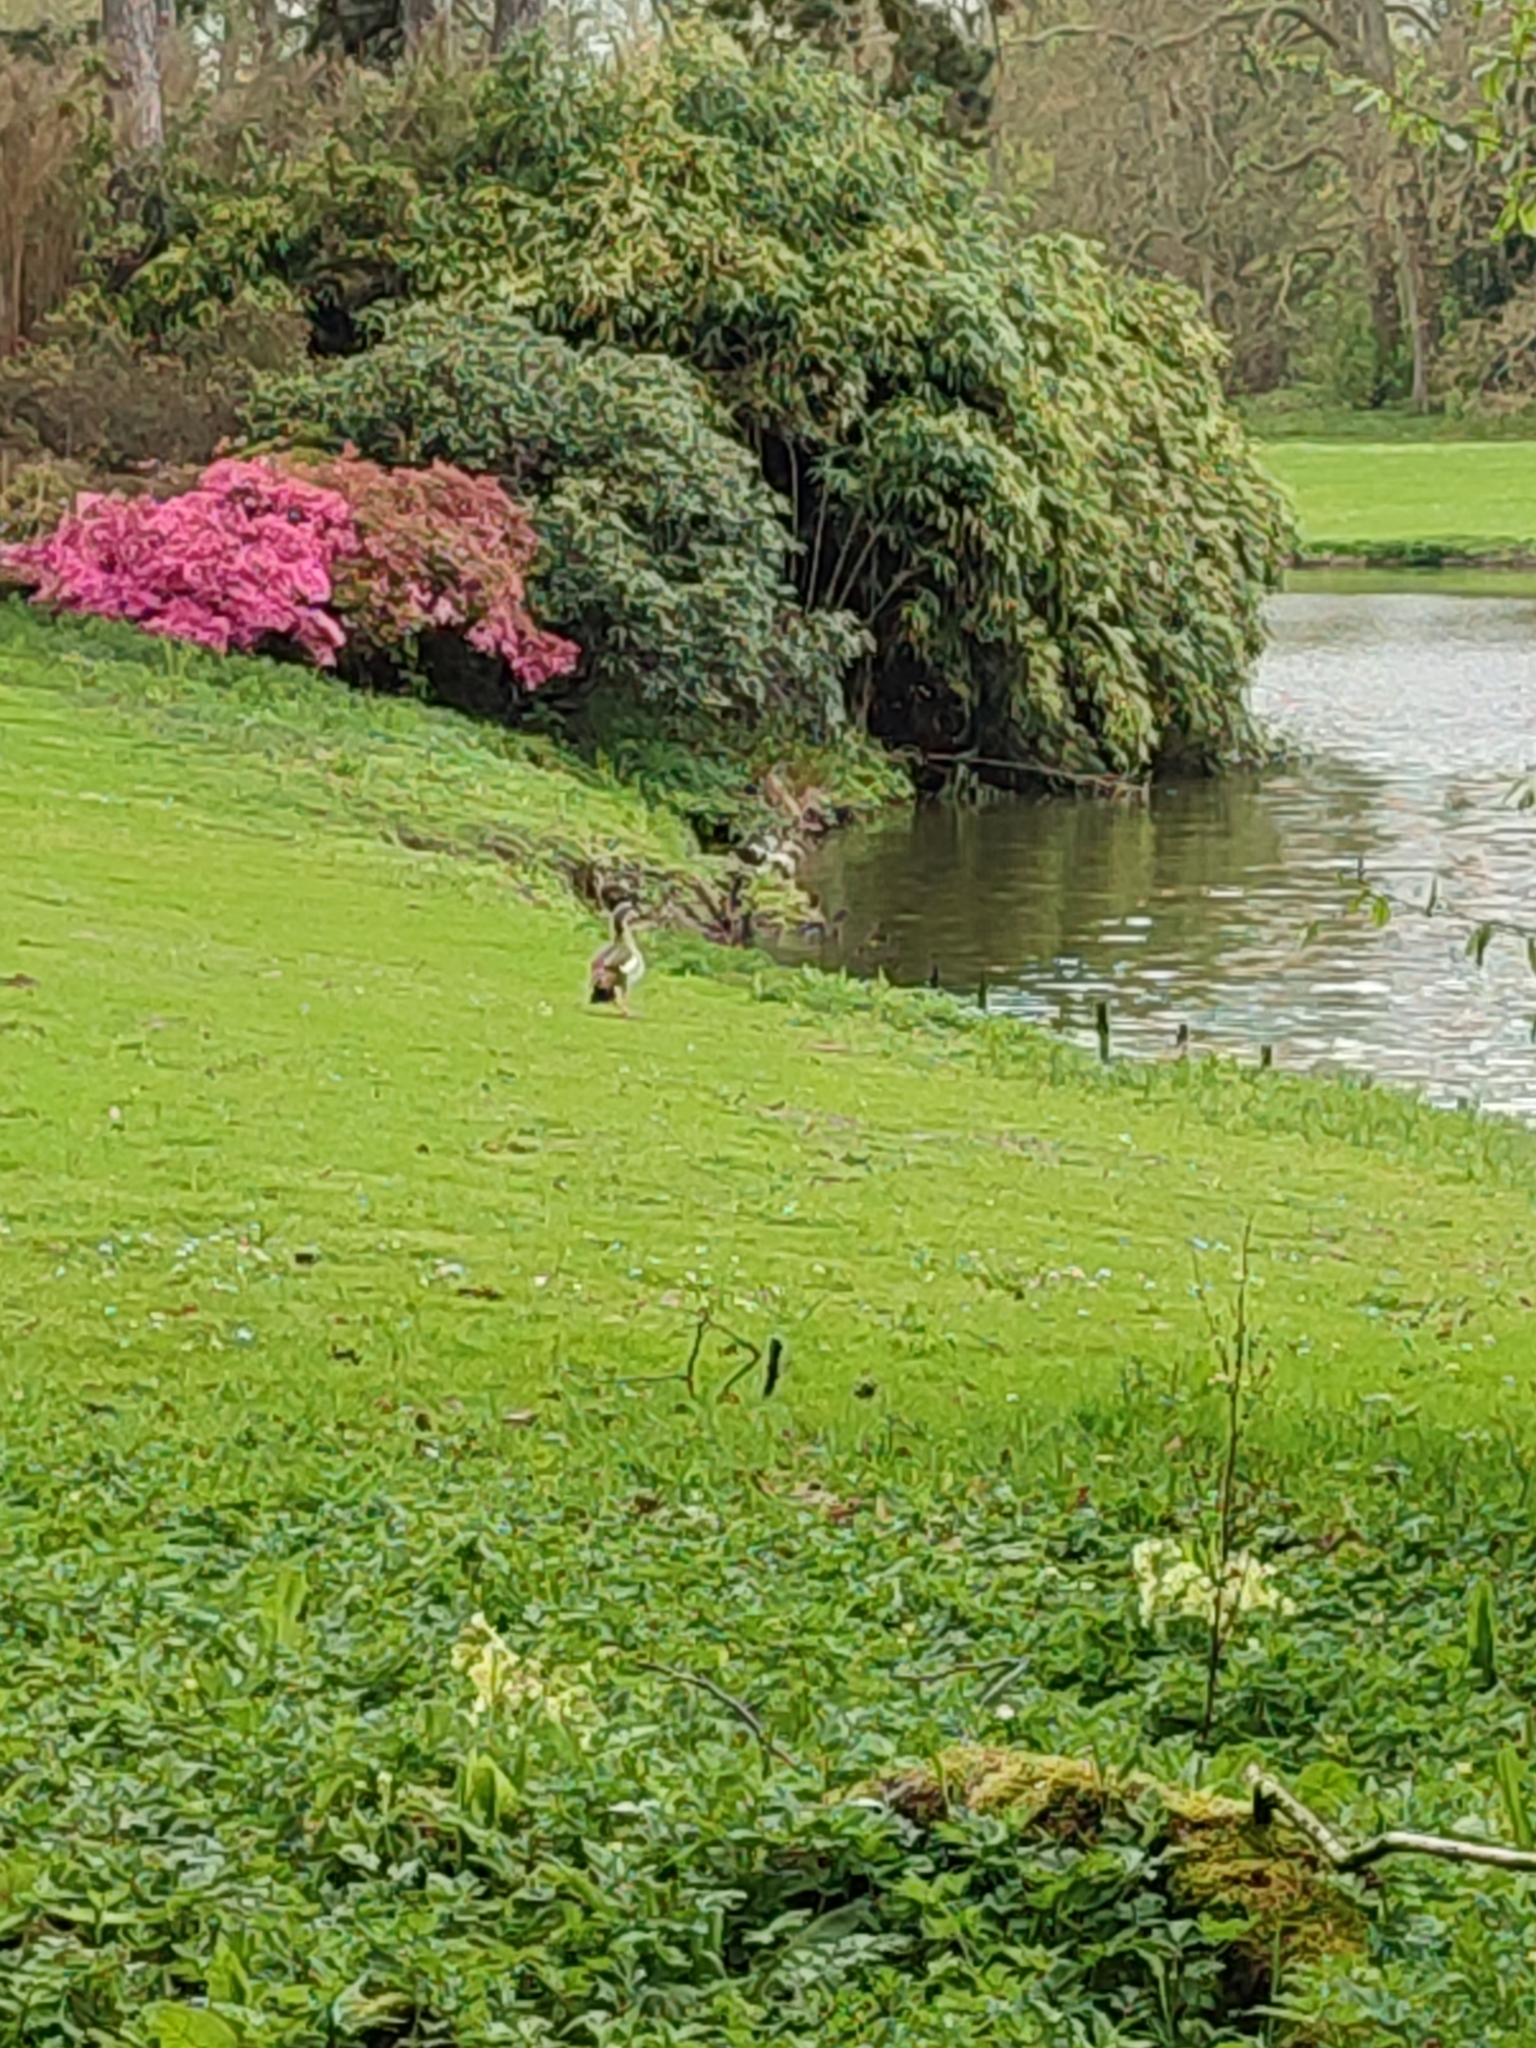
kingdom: Animalia
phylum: Chordata
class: Aves
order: Anseriformes
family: Anatidae
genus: Alopochen
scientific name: Alopochen aegyptiaca
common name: Egyptian goose
